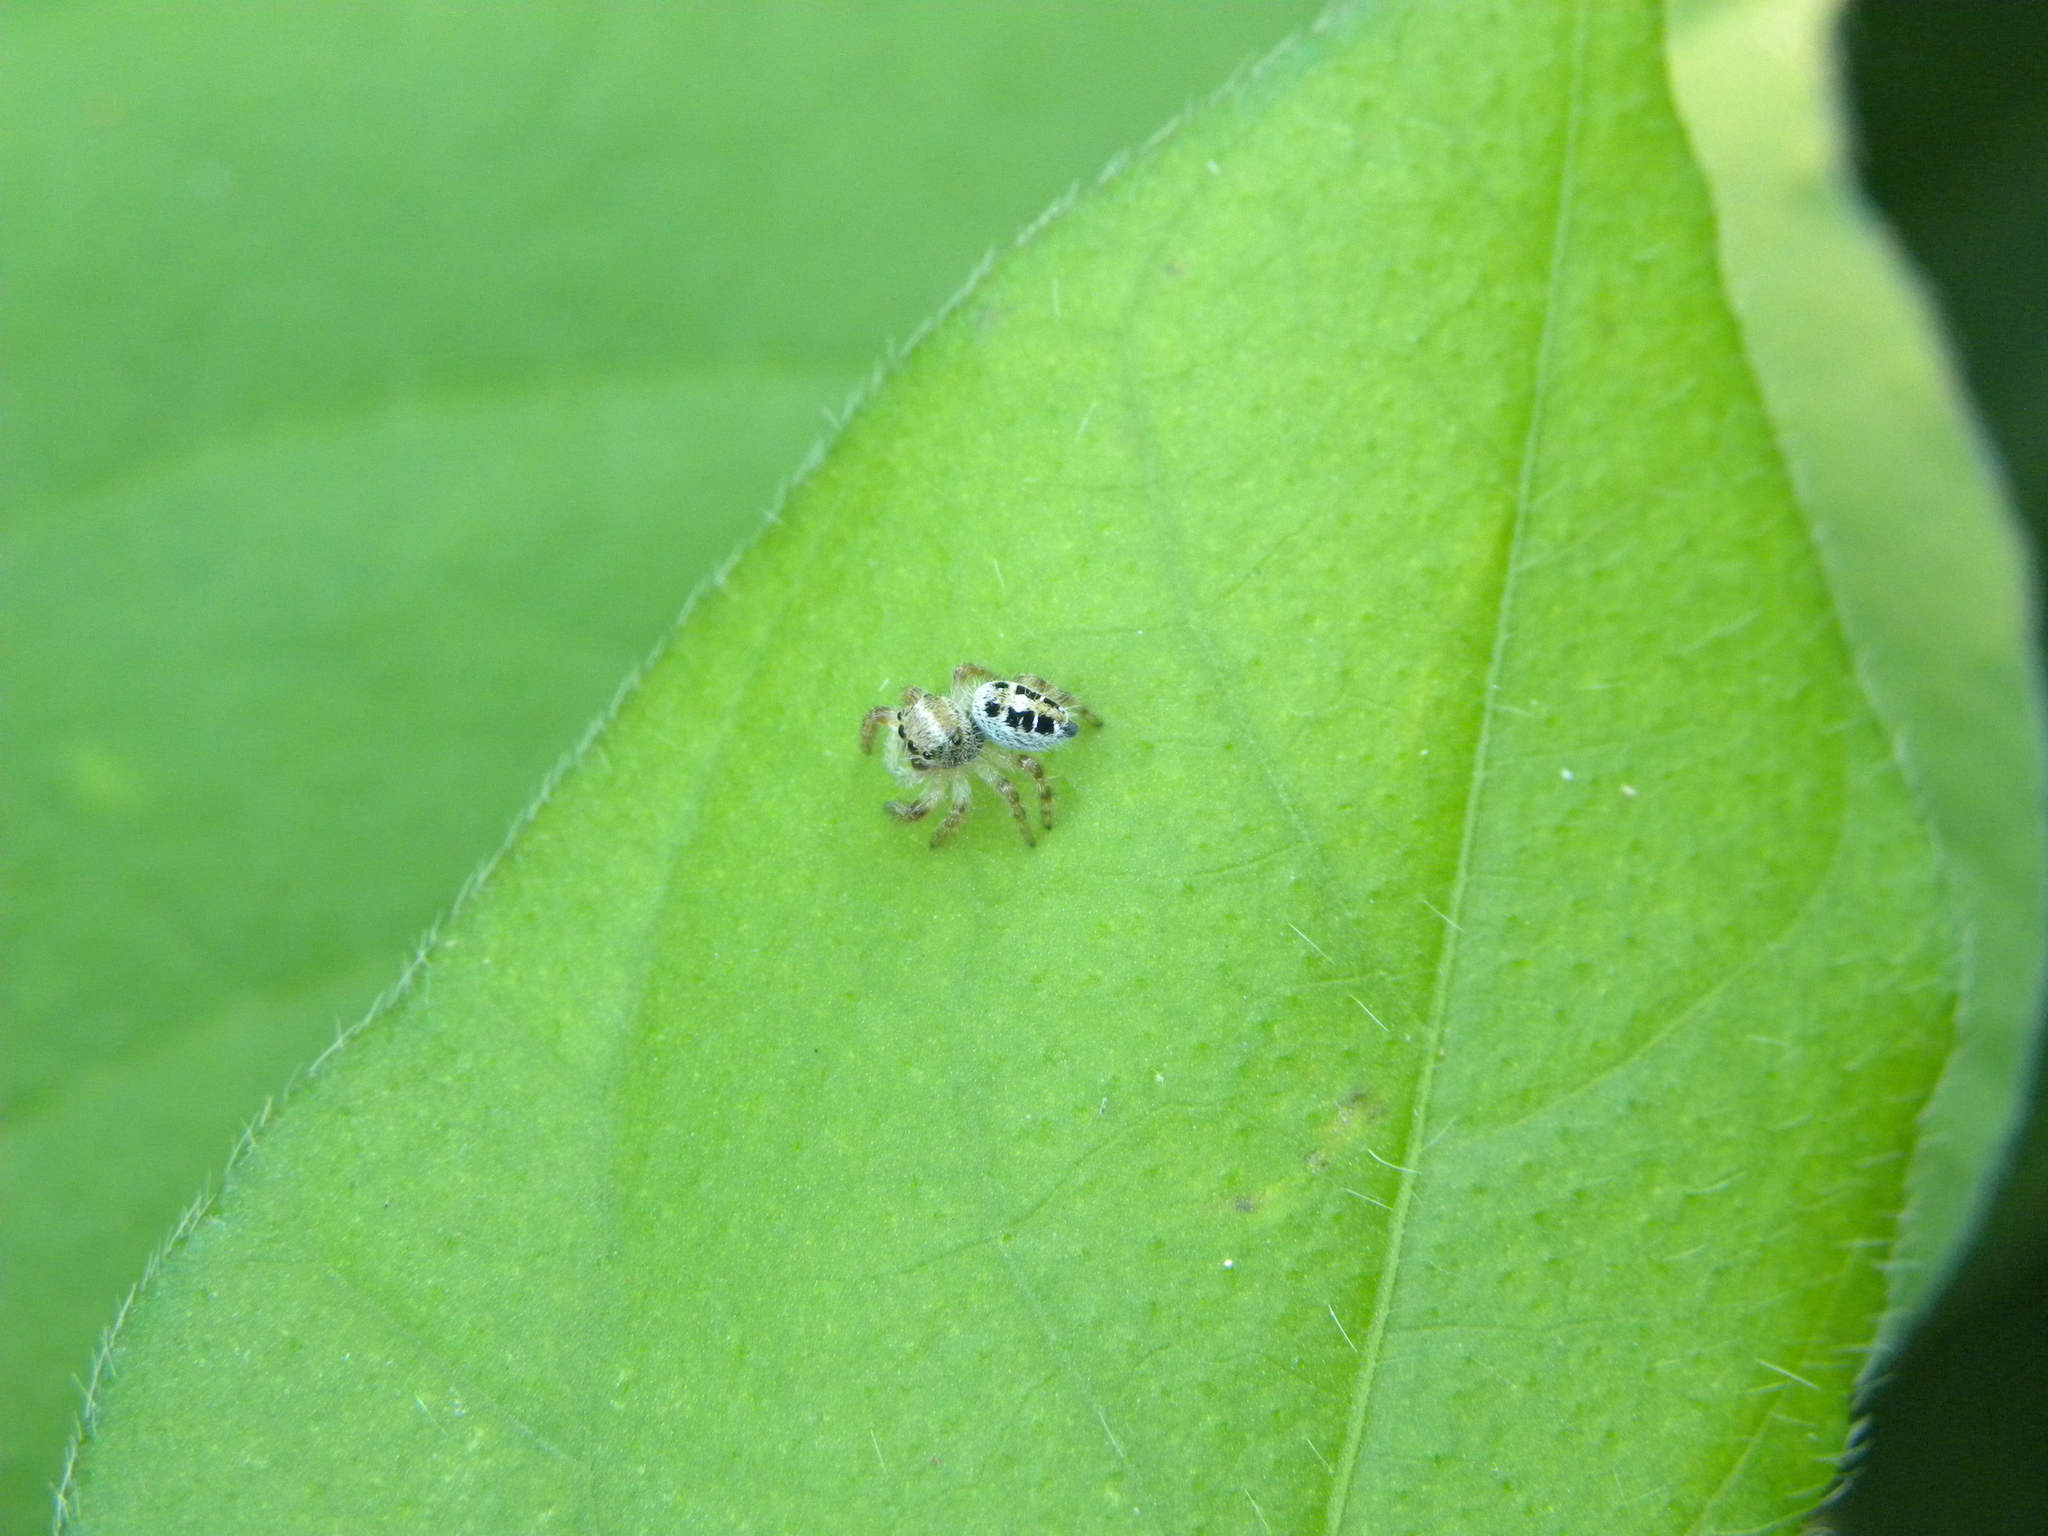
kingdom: Animalia
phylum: Arthropoda
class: Arachnida
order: Araneae
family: Salticidae
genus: Phidippus
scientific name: Phidippus princeps
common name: Grayish jumping spider
